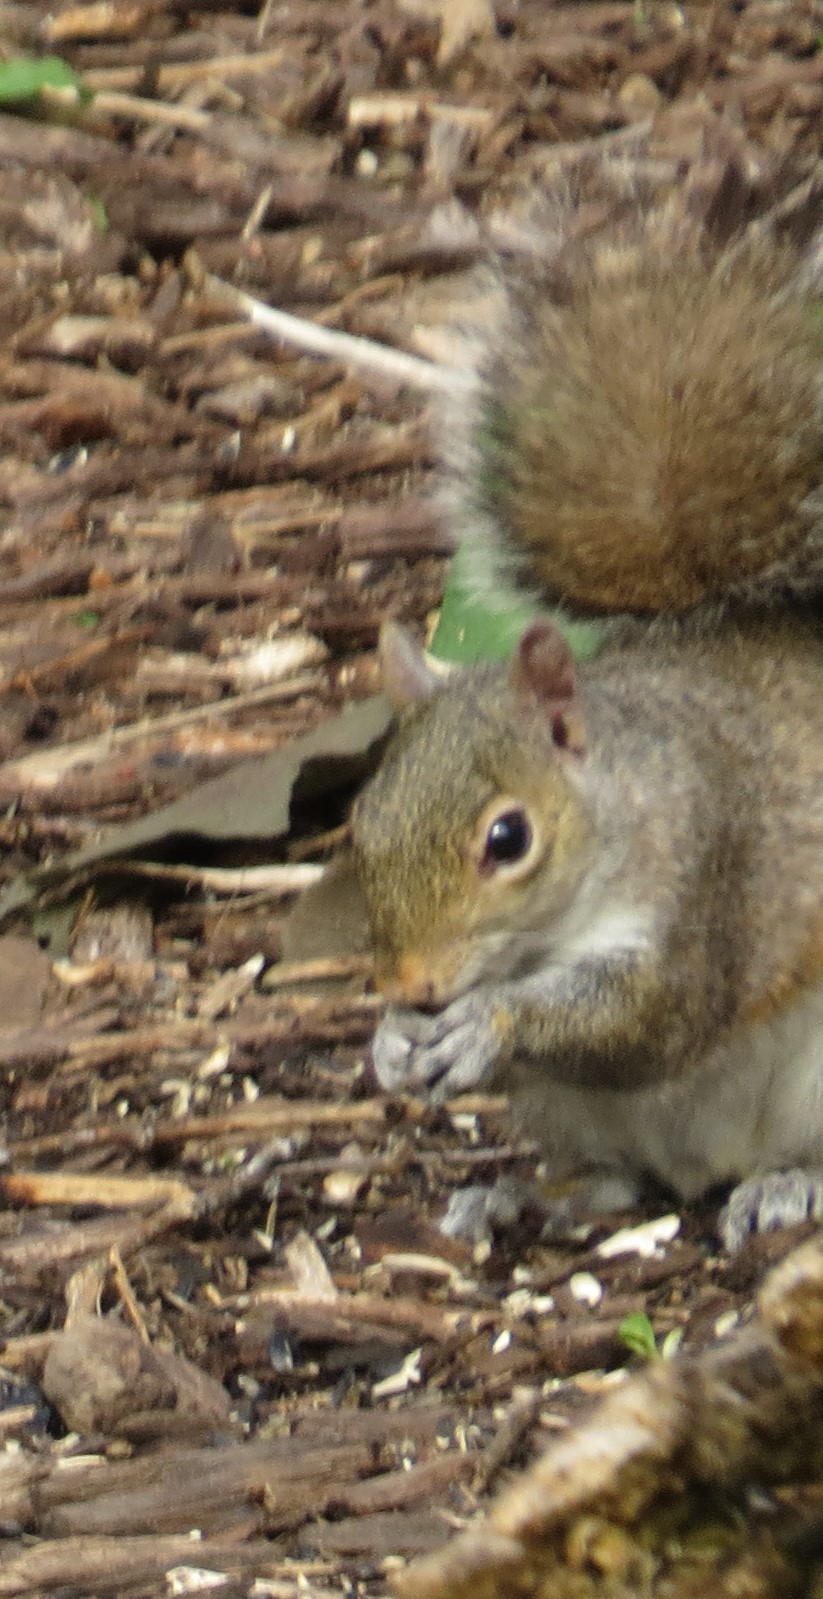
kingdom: Animalia
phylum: Chordata
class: Mammalia
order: Rodentia
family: Sciuridae
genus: Sciurus
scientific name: Sciurus carolinensis
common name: Eastern gray squirrel
